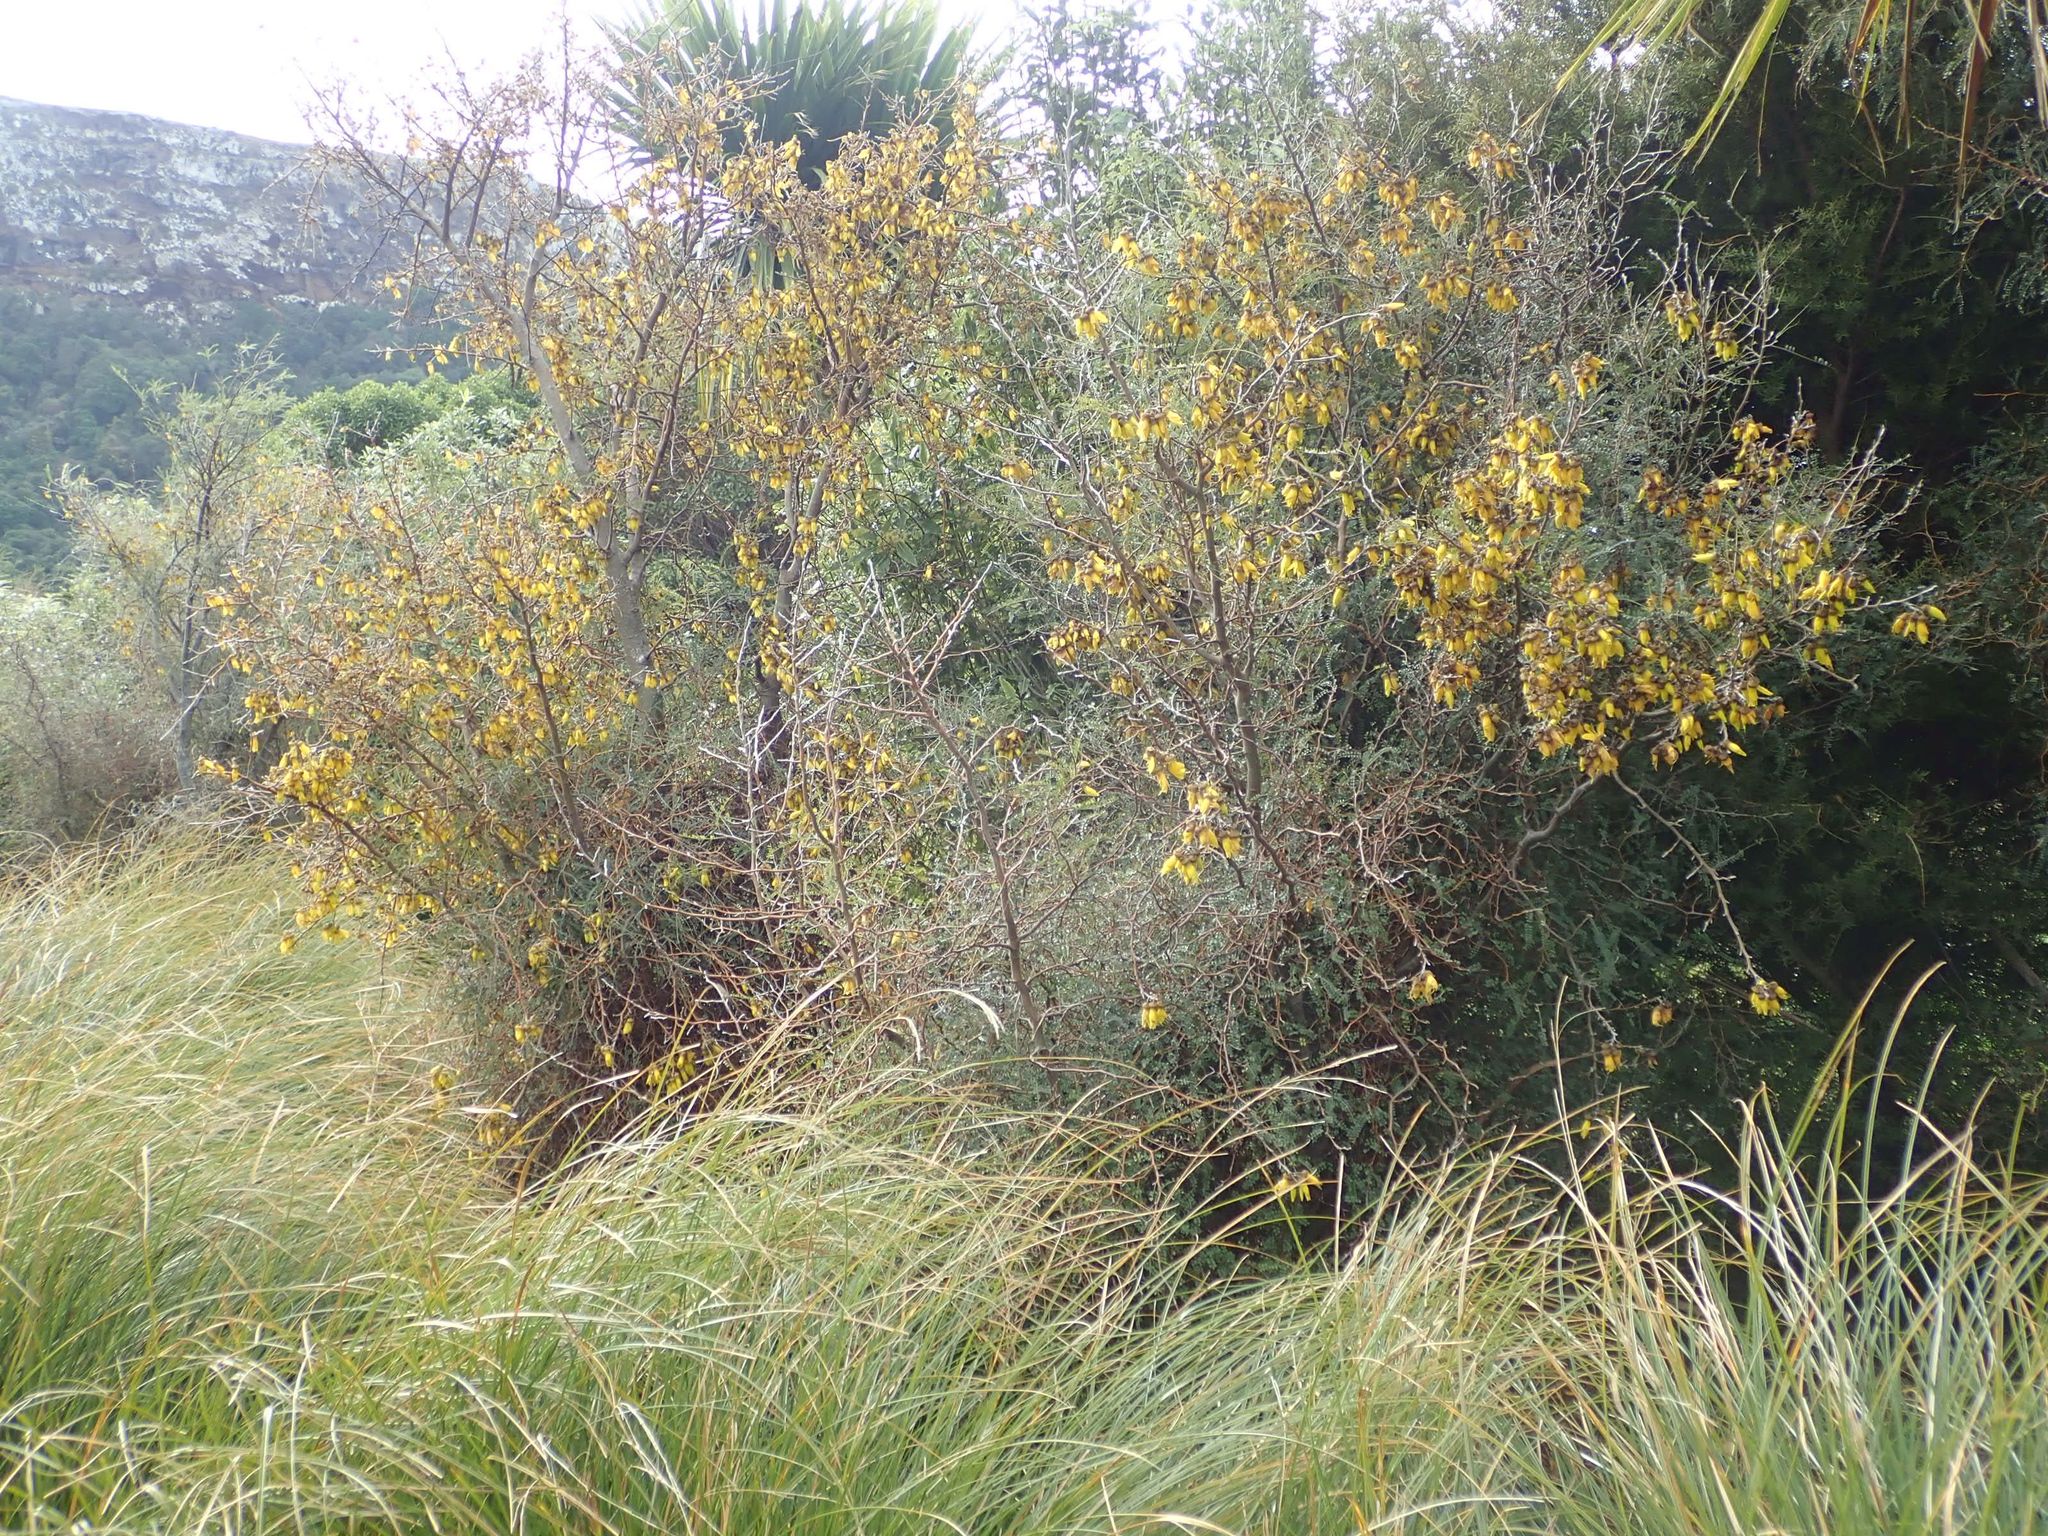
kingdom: Plantae
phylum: Tracheophyta
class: Magnoliopsida
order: Fabales
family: Fabaceae
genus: Sophora
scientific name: Sophora microphylla
